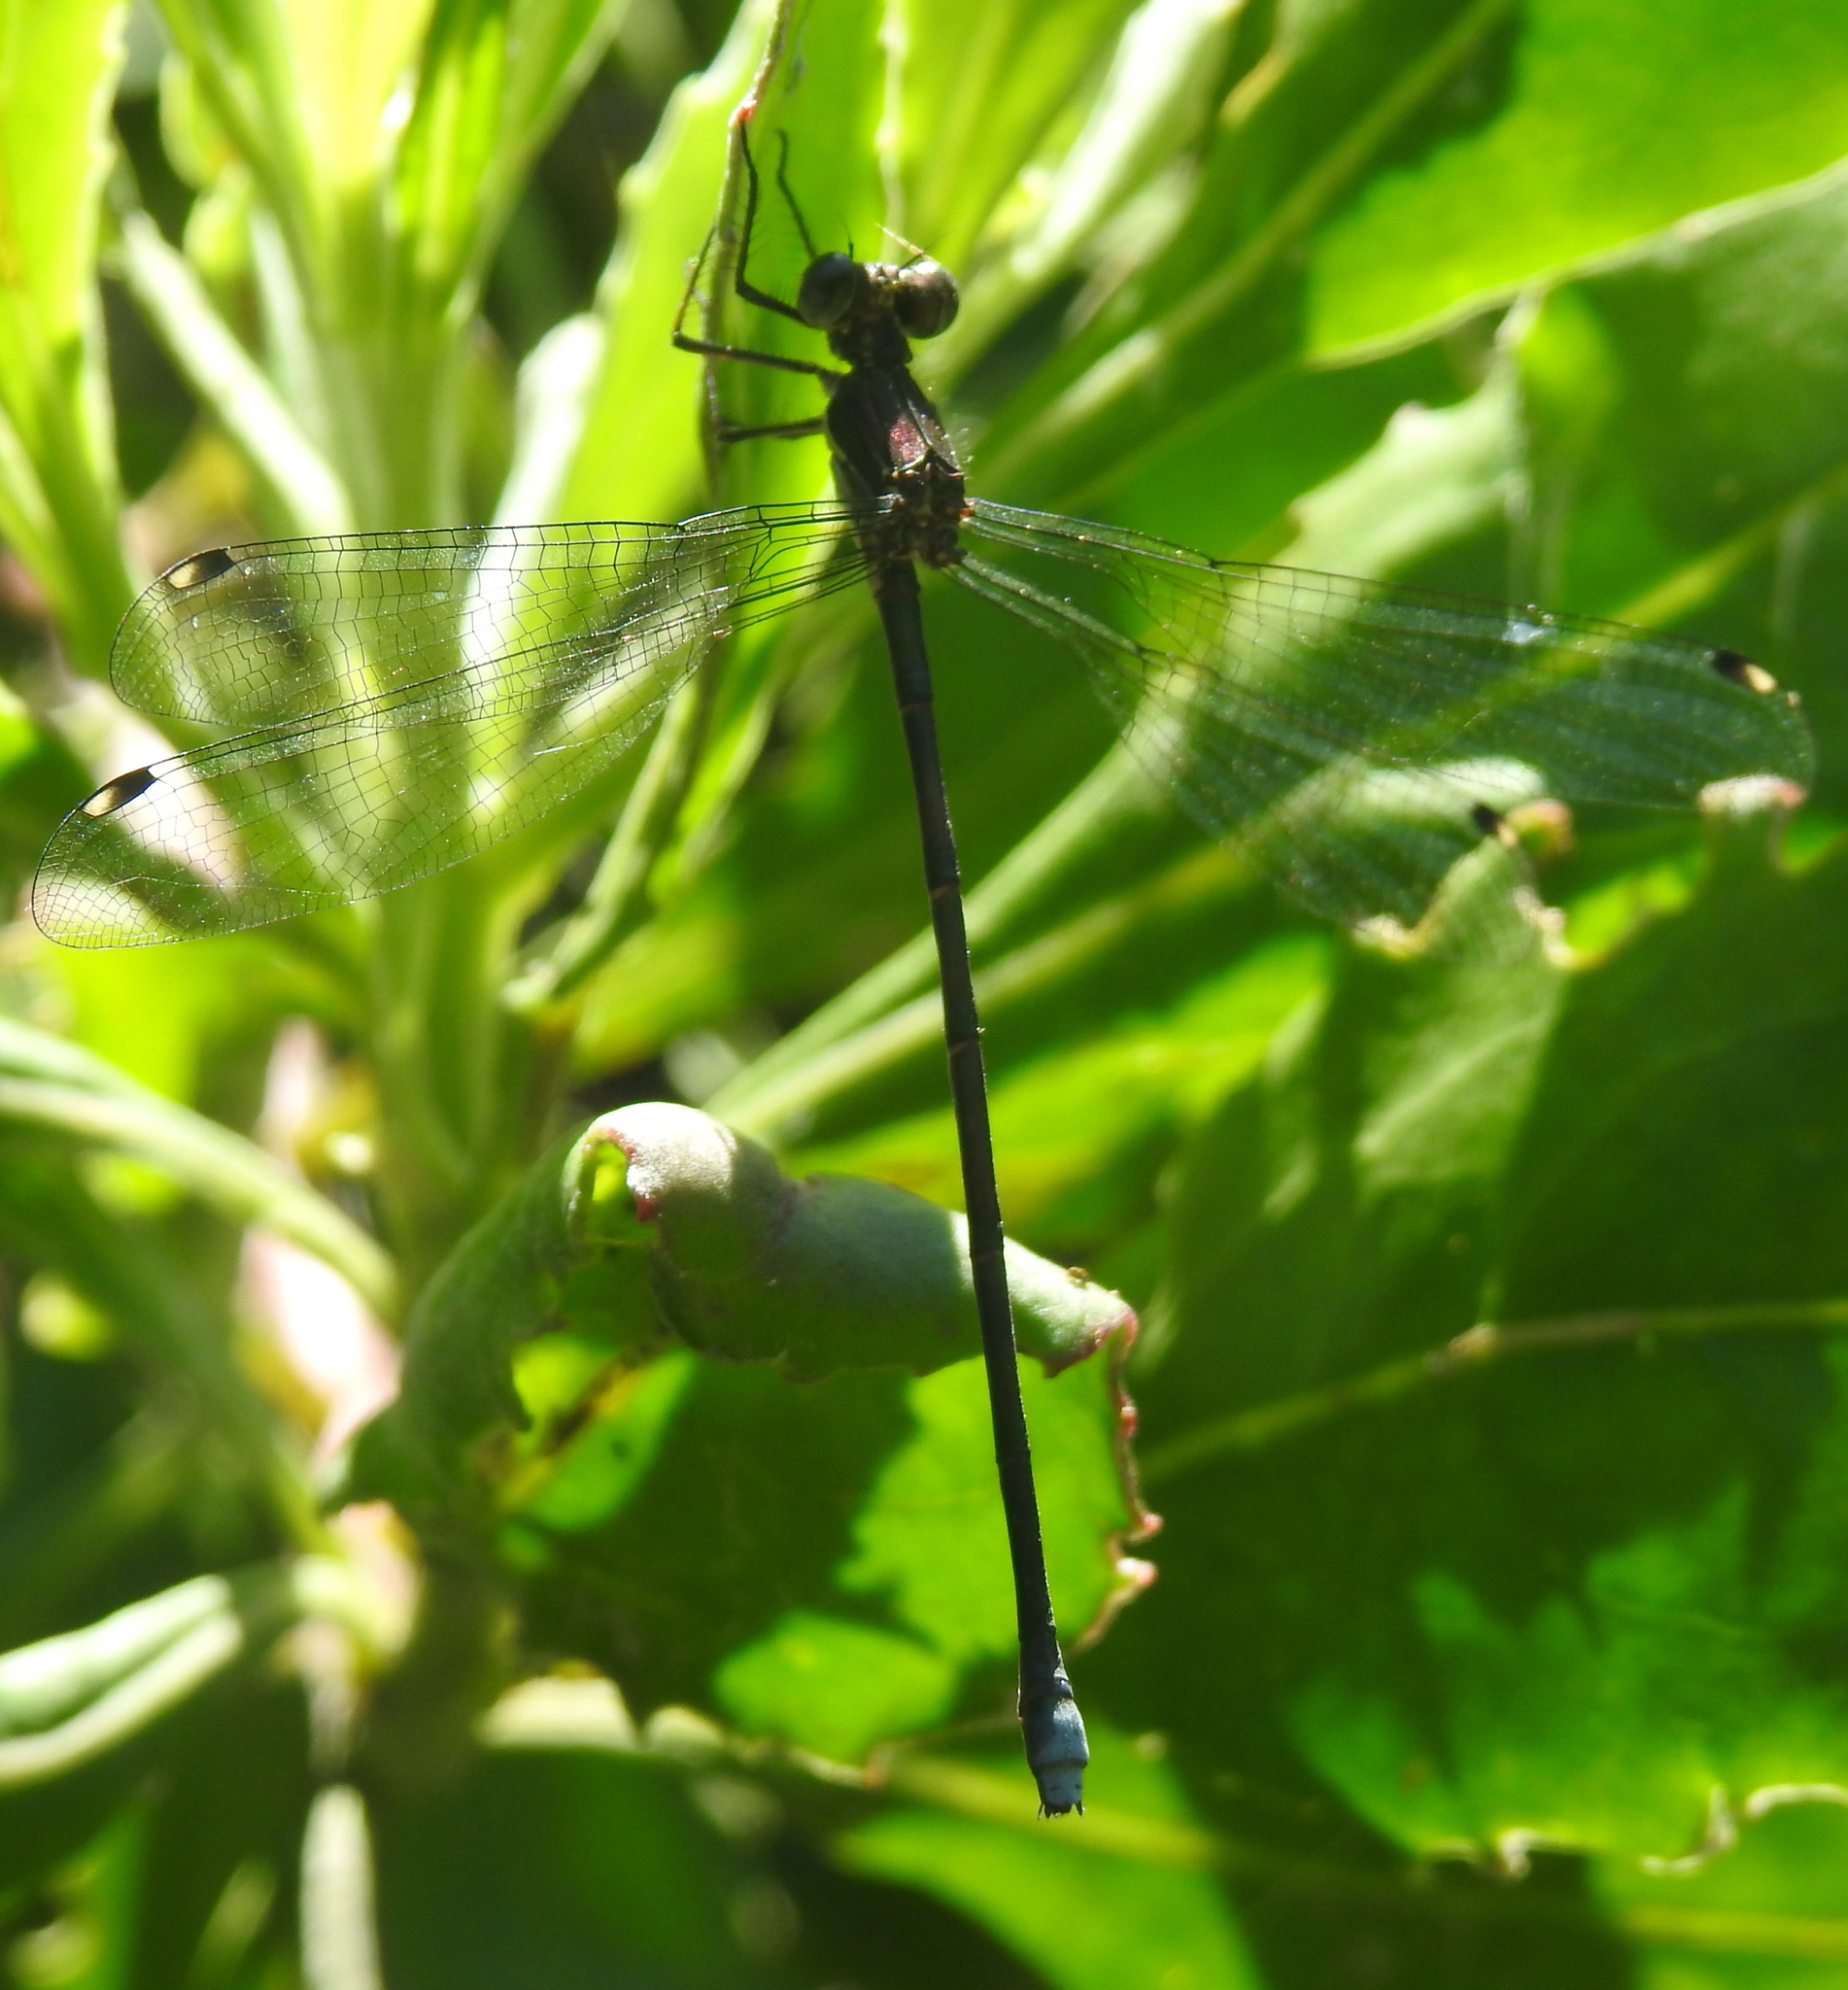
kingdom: Animalia
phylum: Arthropoda
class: Insecta
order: Odonata
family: Synlestidae
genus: Chlorolestes
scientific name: Chlorolestes tessellatus
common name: Forest malachite
